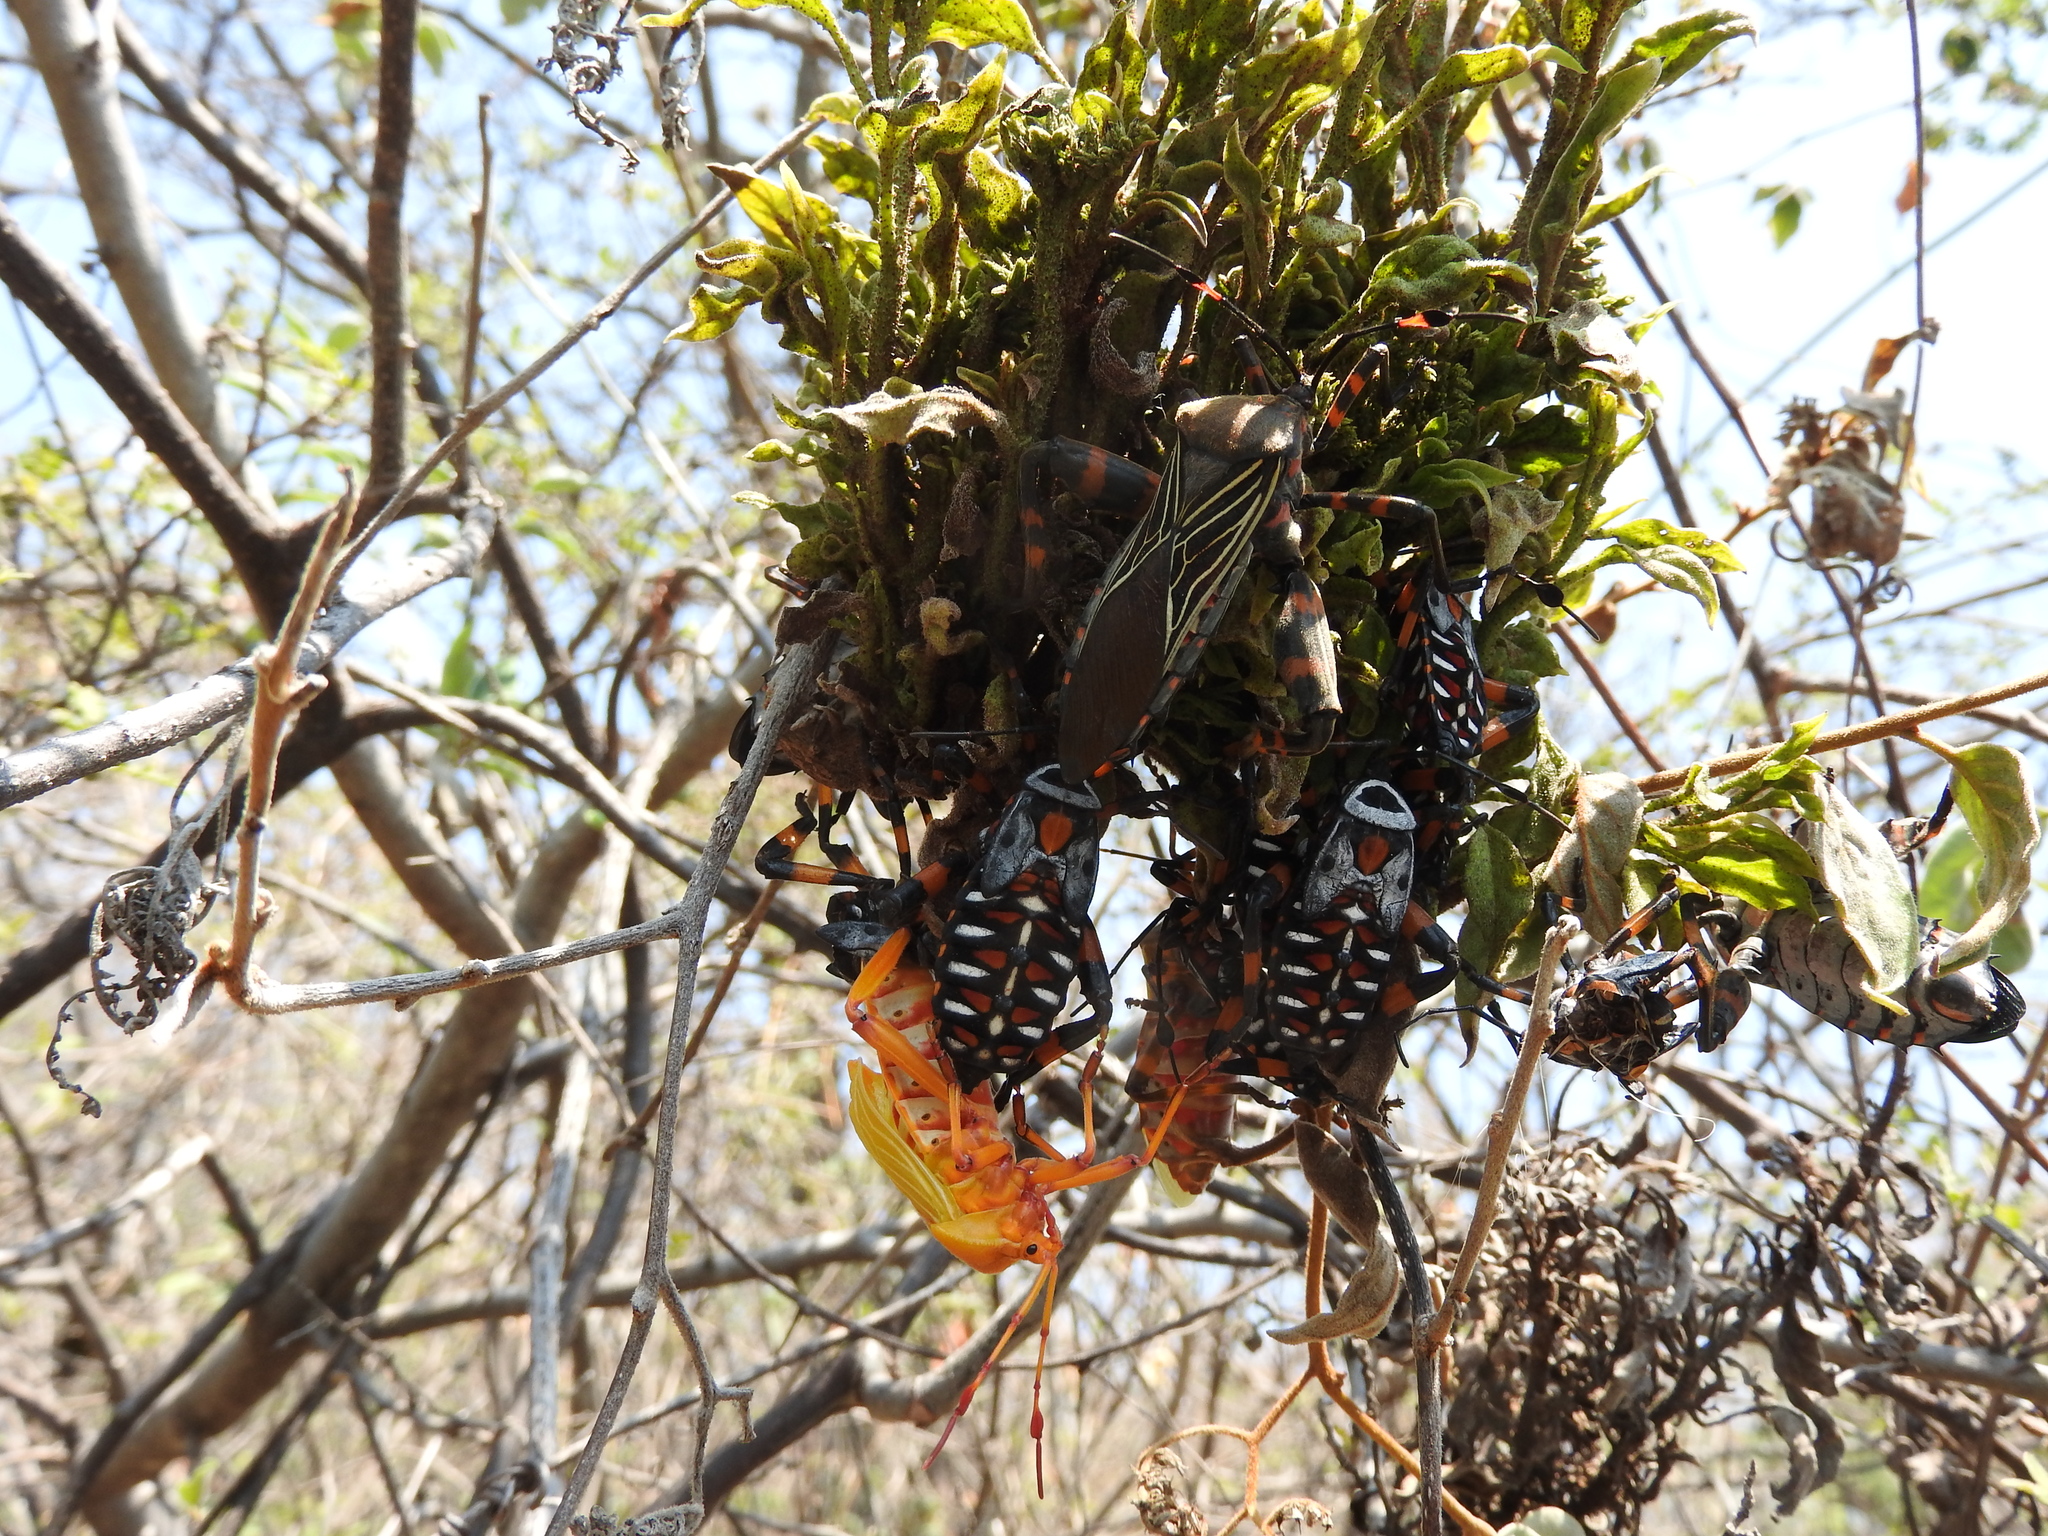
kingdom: Animalia
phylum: Arthropoda
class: Insecta
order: Hemiptera
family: Coreidae
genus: Thasus
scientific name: Thasus
